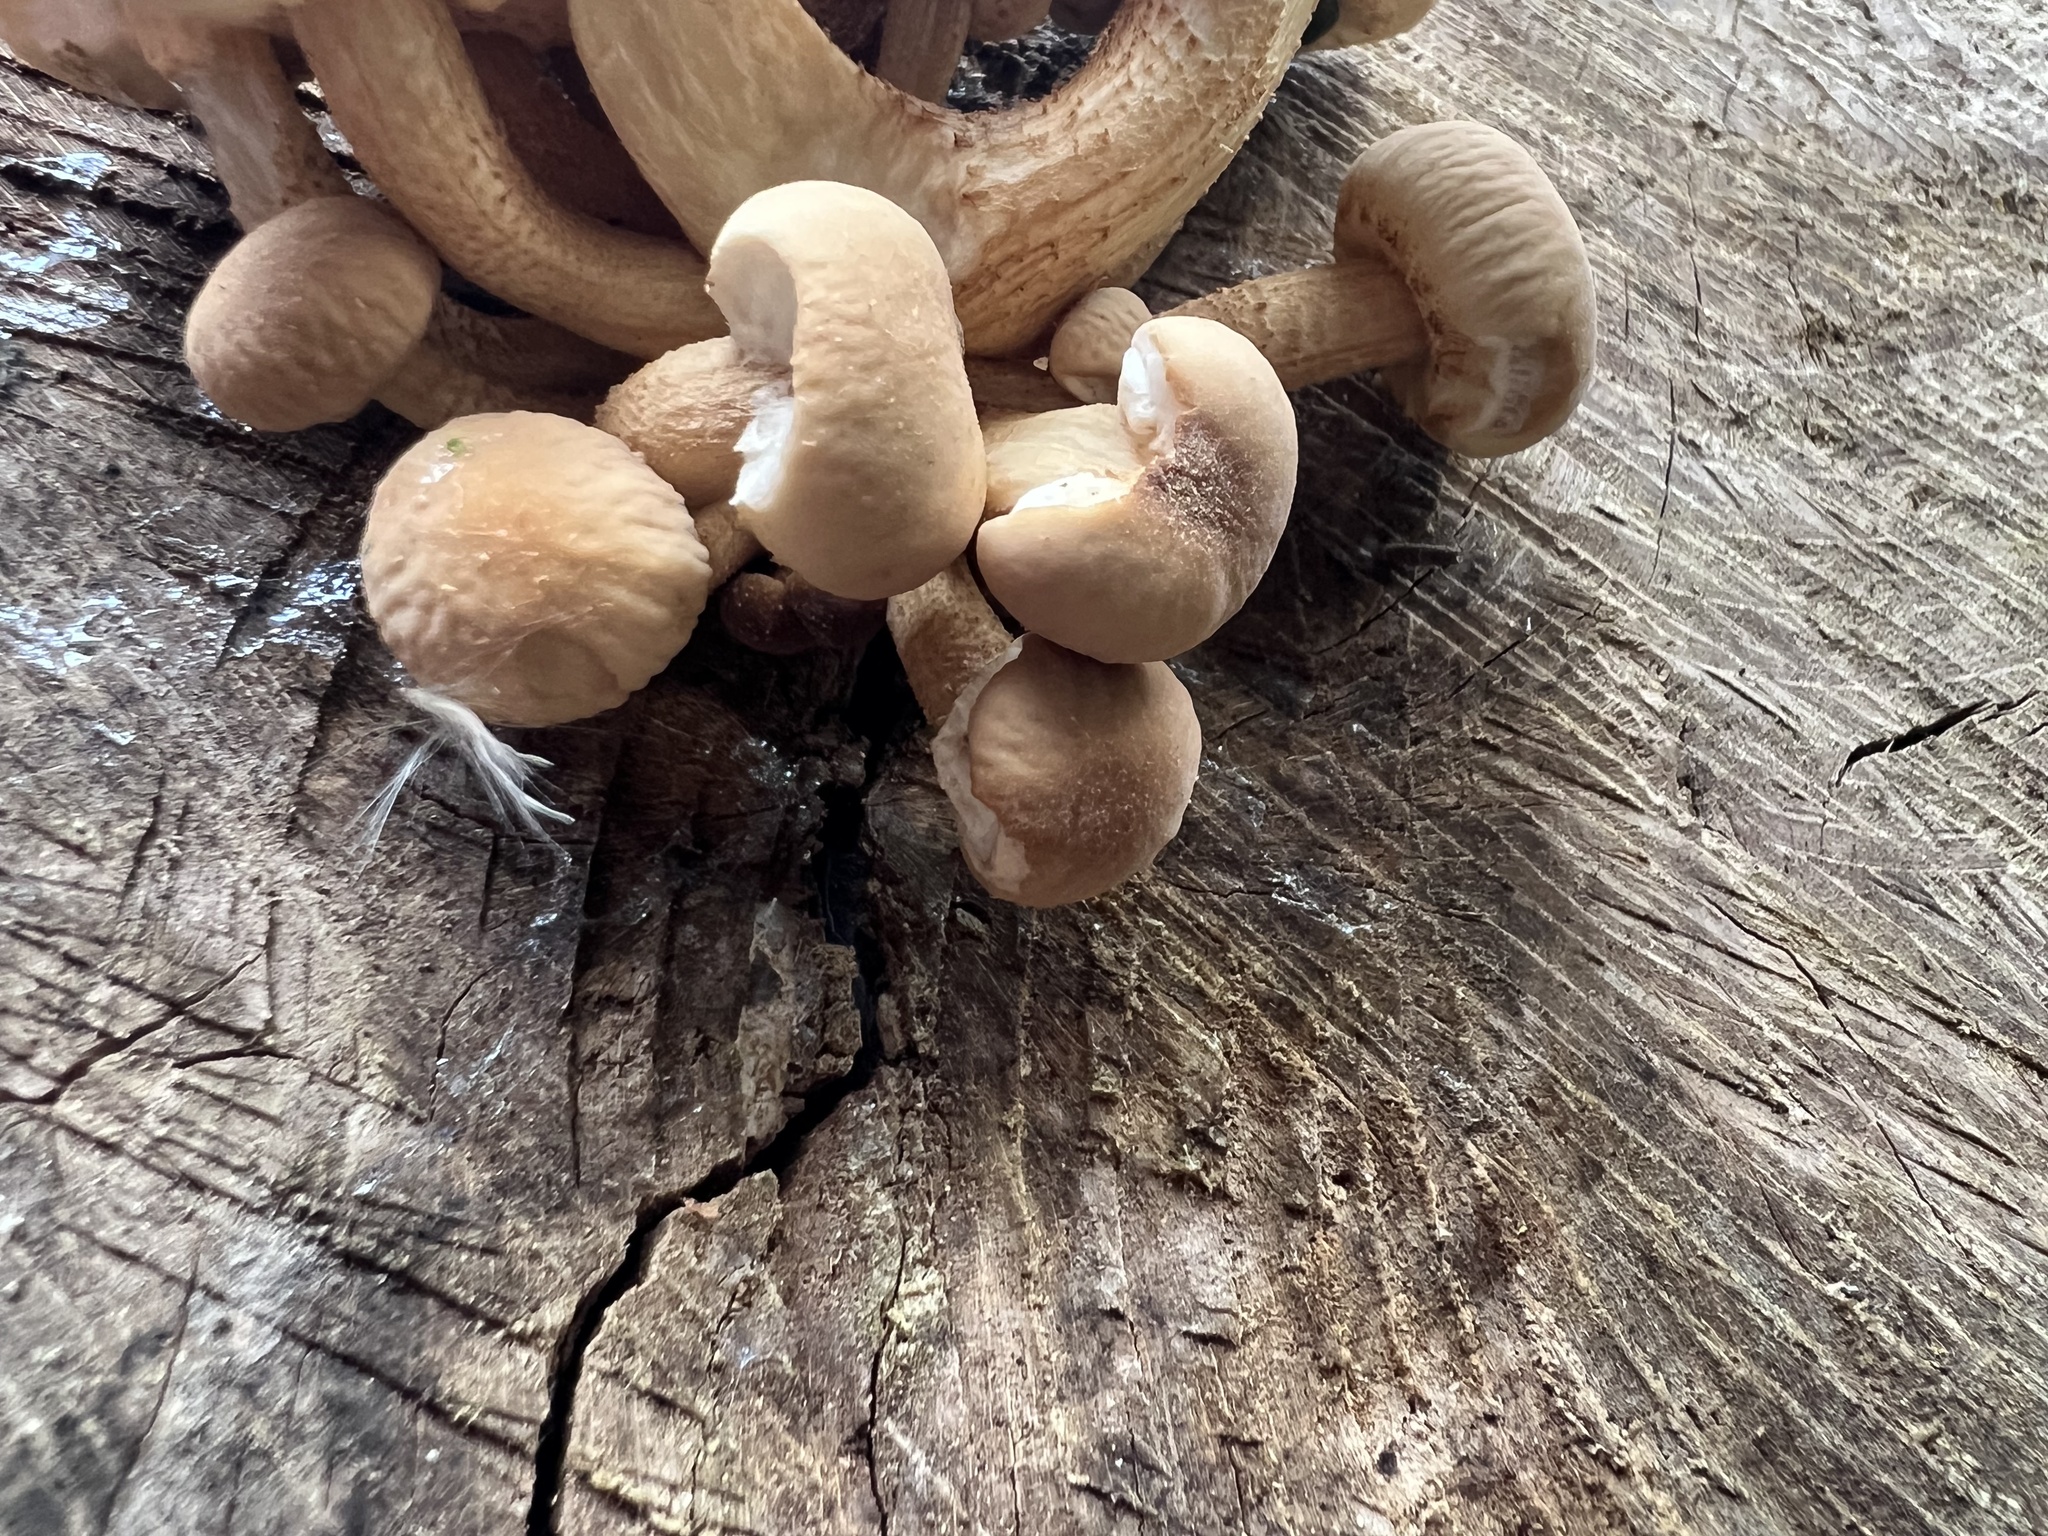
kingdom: Fungi
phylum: Basidiomycota
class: Agaricomycetes
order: Agaricales
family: Tubariaceae
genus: Cyclocybe
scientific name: Cyclocybe parasitica
